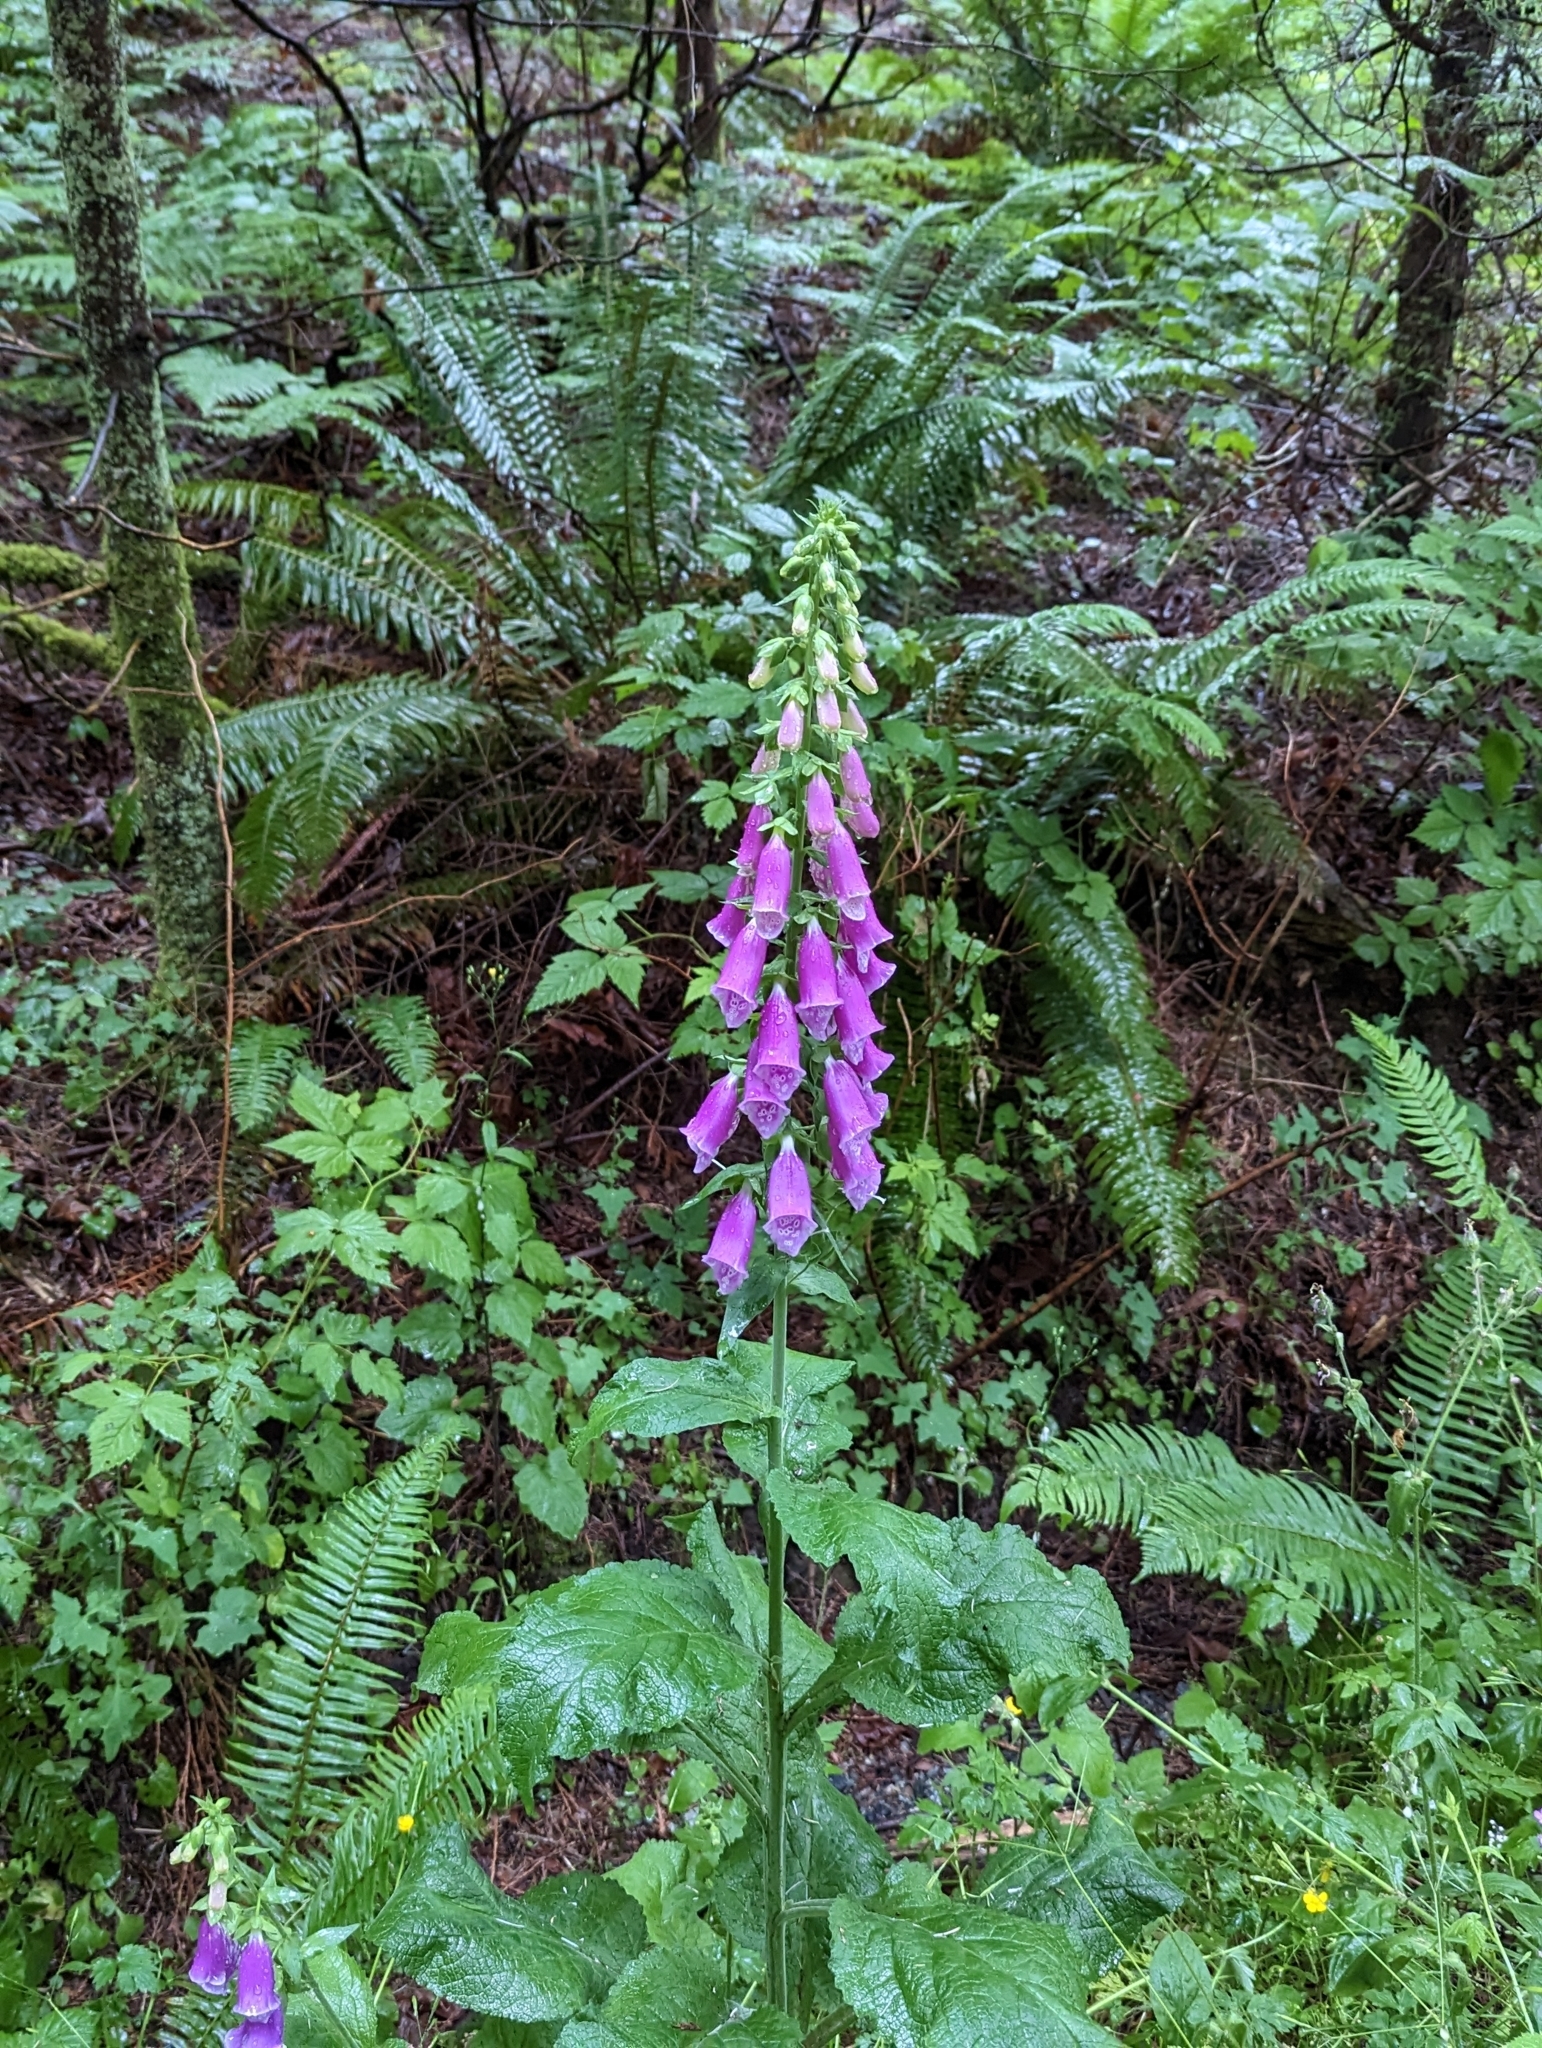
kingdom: Plantae
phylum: Tracheophyta
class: Magnoliopsida
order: Lamiales
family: Plantaginaceae
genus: Digitalis
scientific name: Digitalis purpurea
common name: Foxglove
